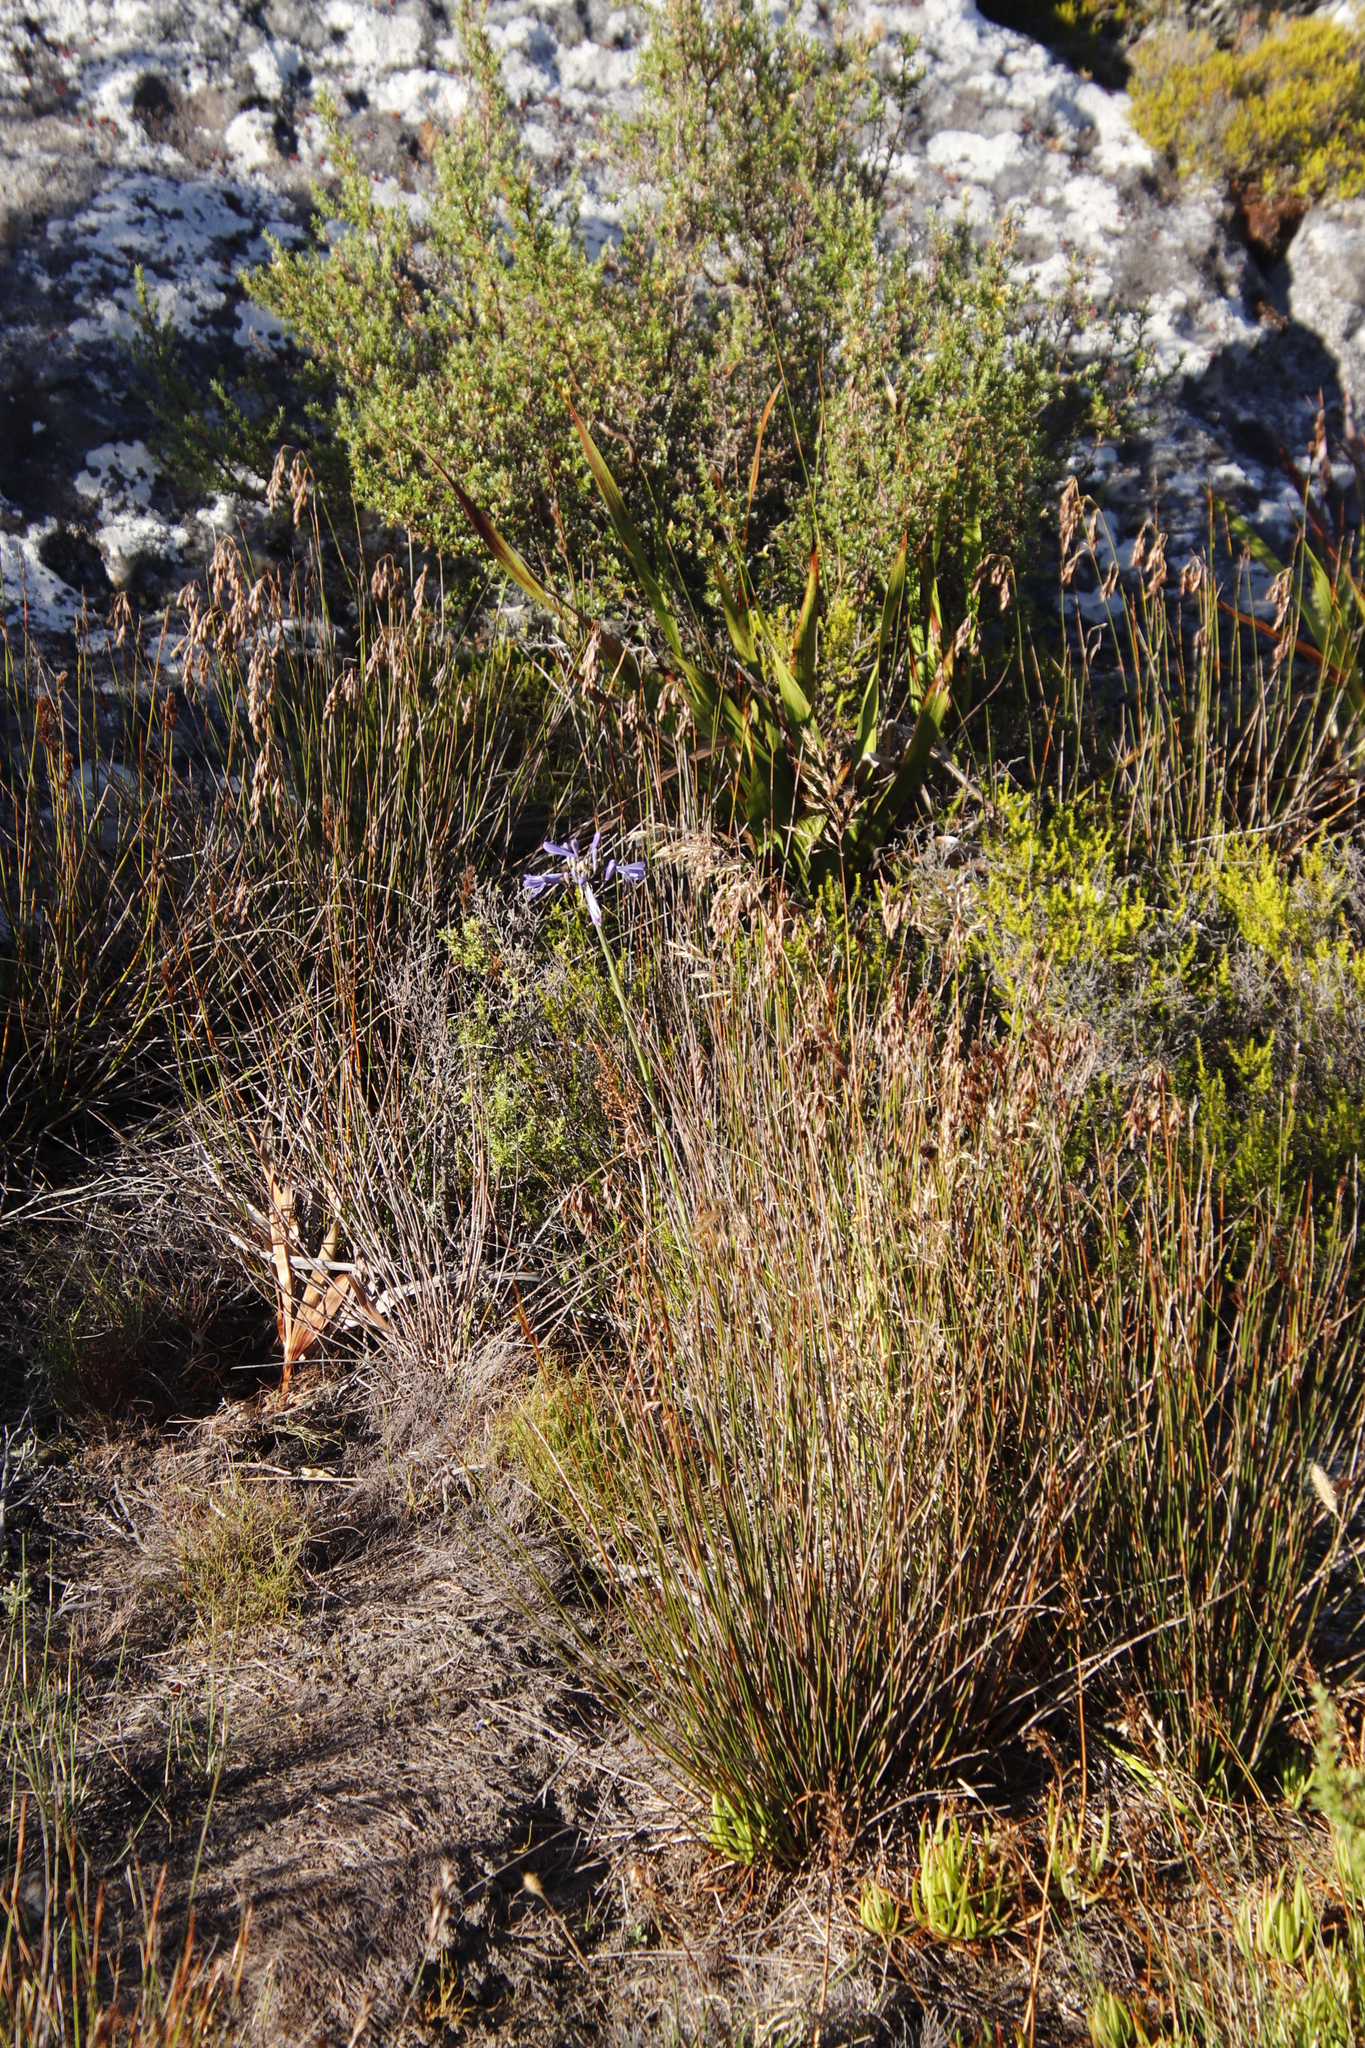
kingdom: Plantae
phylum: Tracheophyta
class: Liliopsida
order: Asparagales
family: Amaryllidaceae
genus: Agapanthus
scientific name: Agapanthus africanus
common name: Lily-of-the-nile
